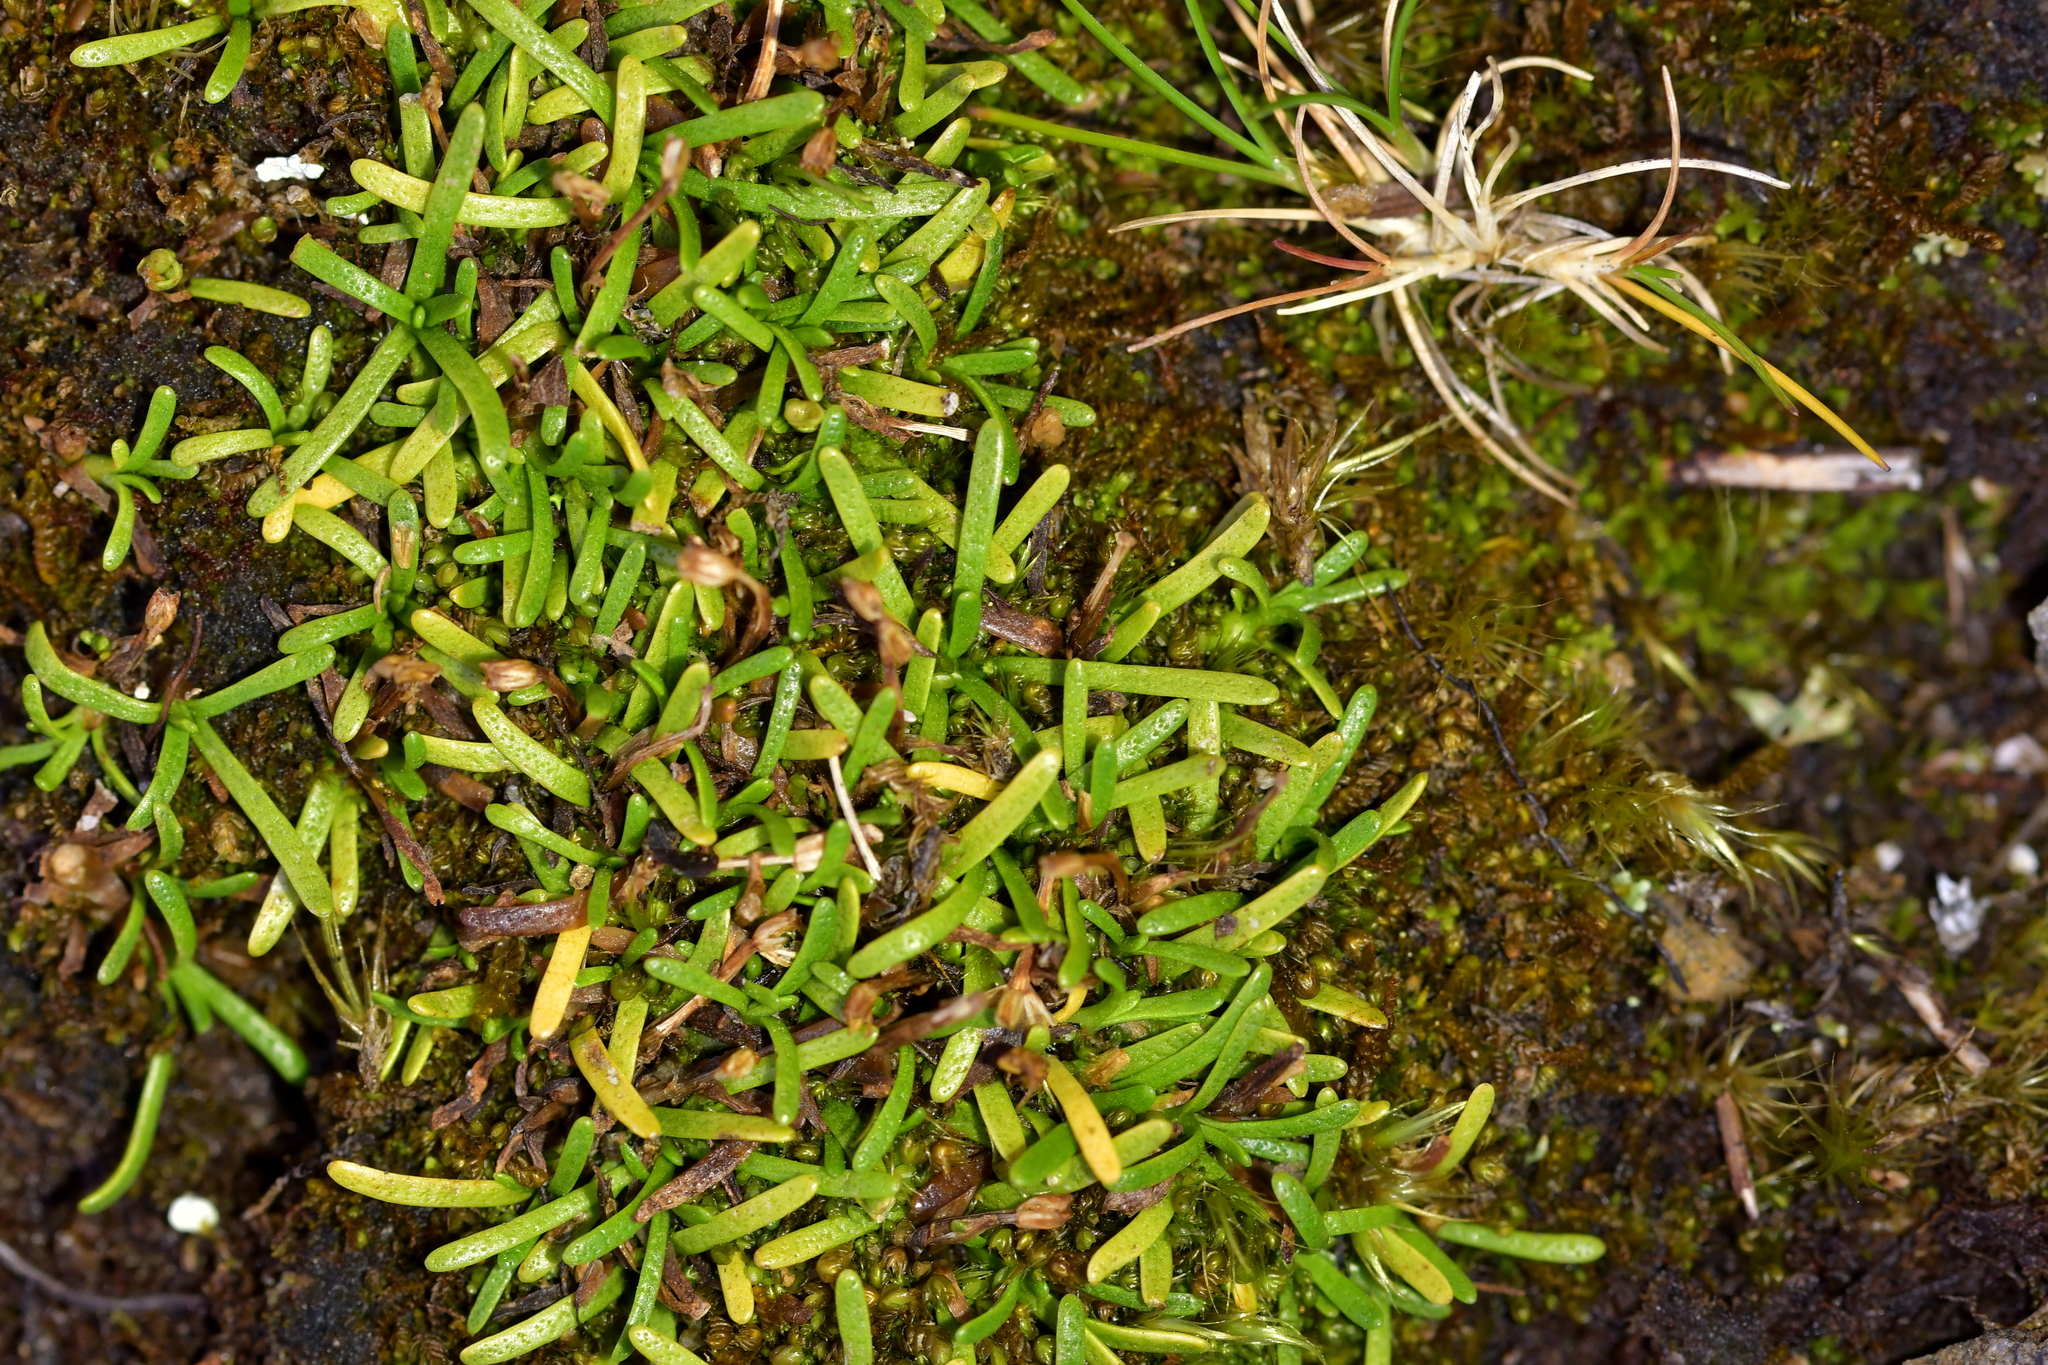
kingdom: Plantae
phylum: Tracheophyta
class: Magnoliopsida
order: Asterales
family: Asteraceae
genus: Abrotanella
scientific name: Abrotanella caespitosa
